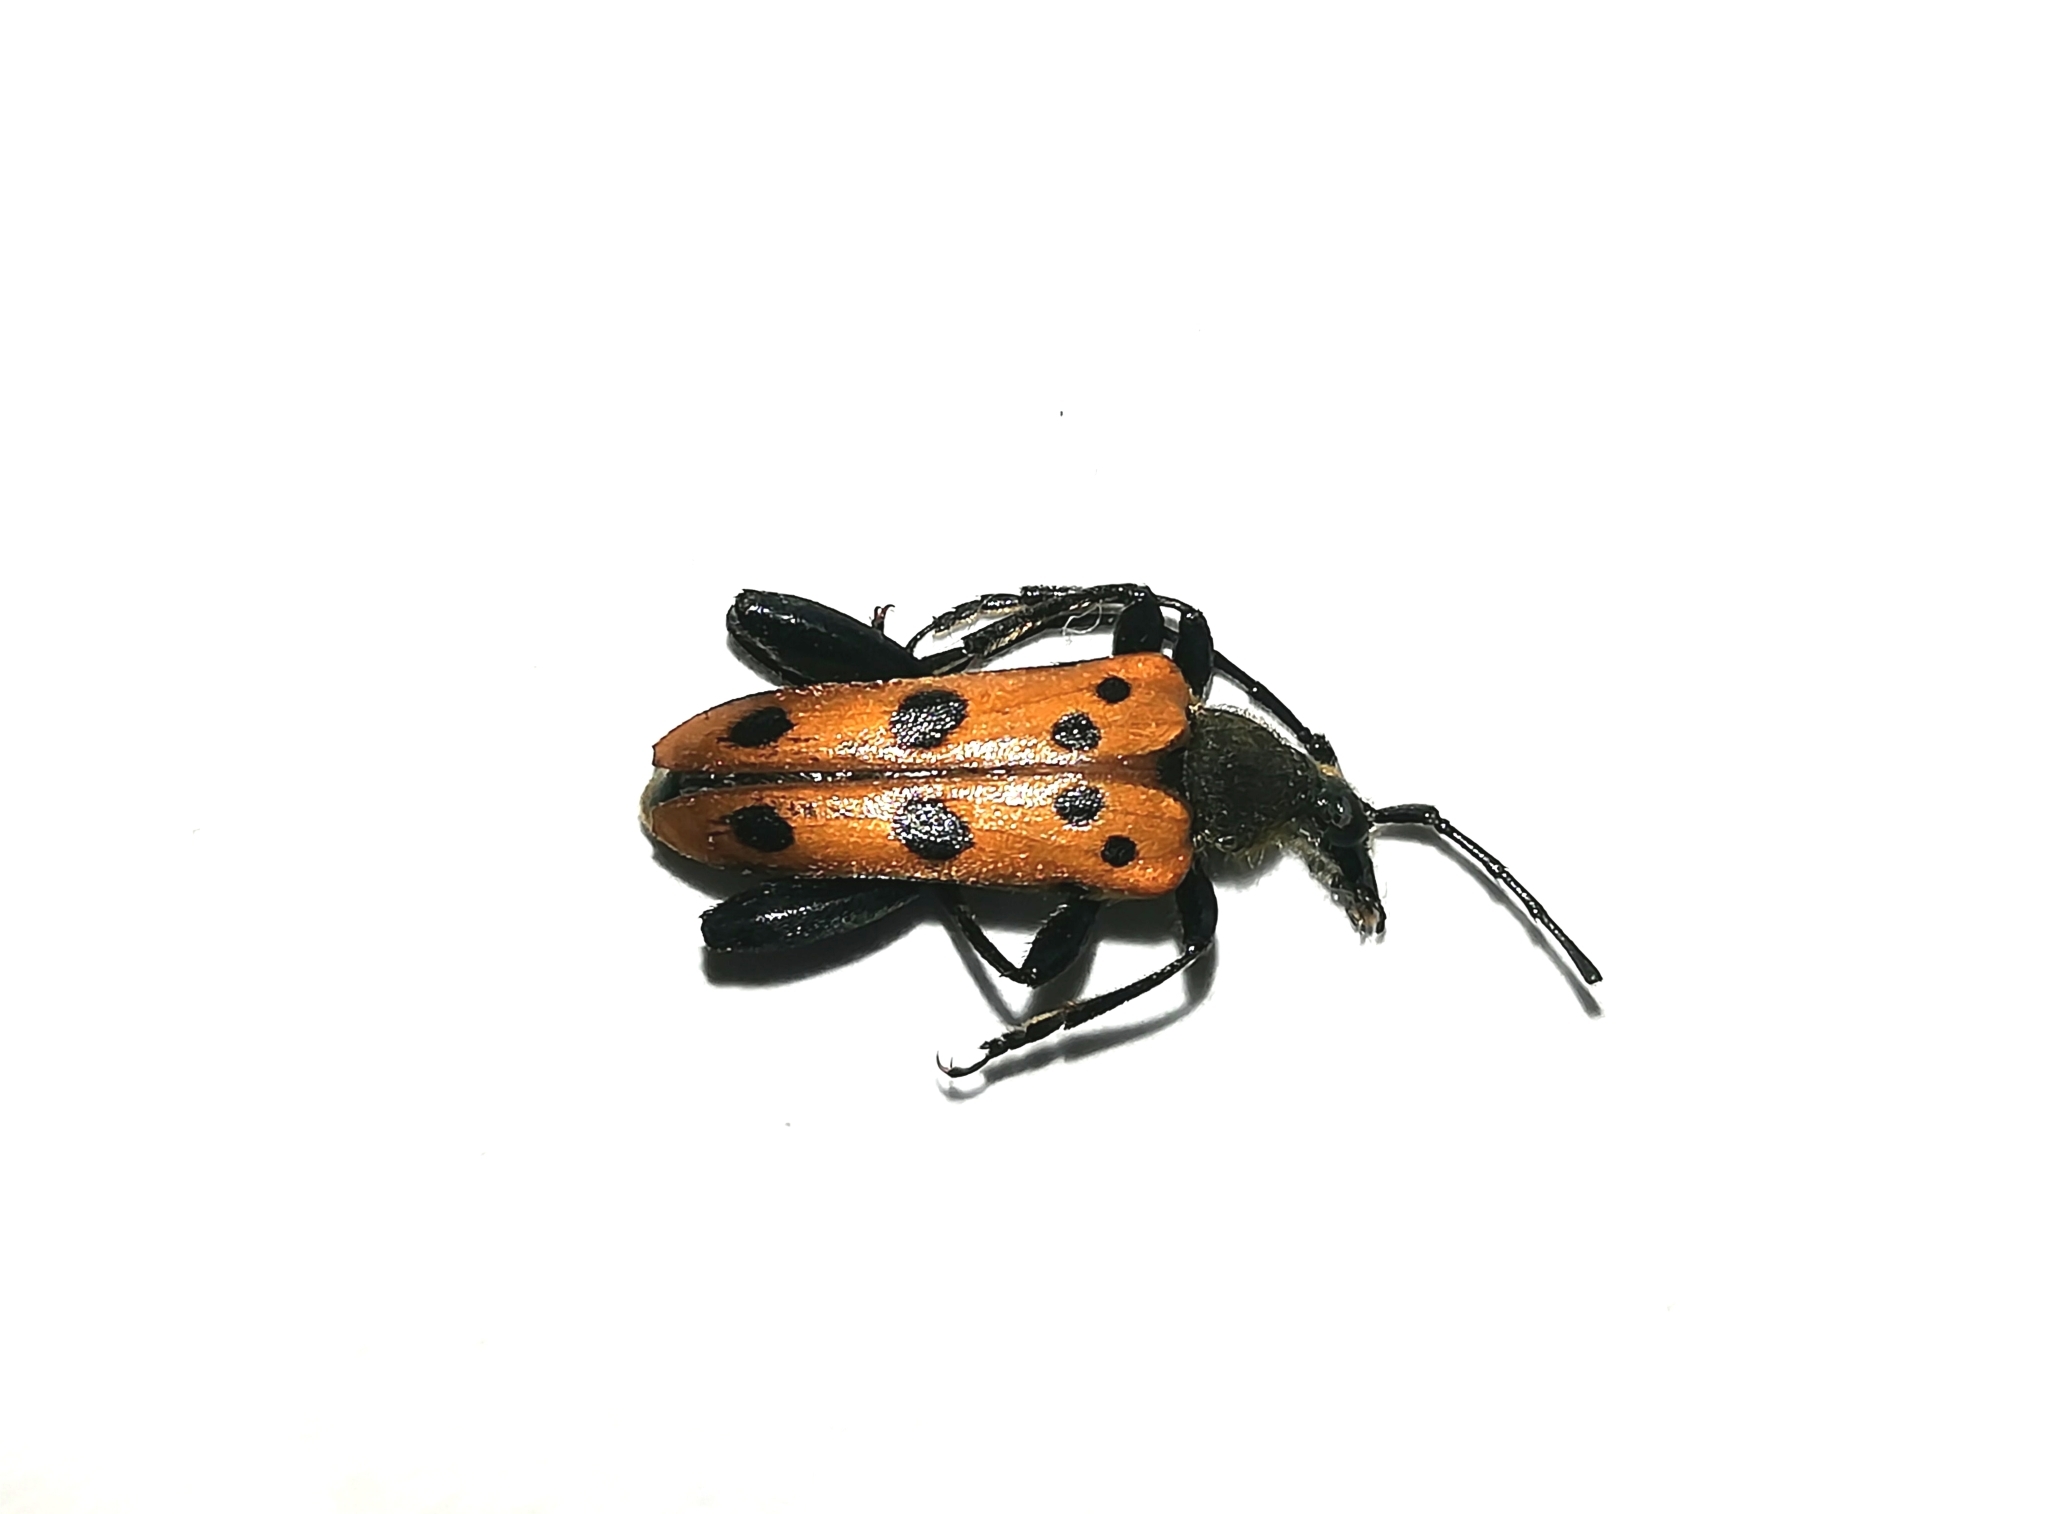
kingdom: Animalia
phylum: Arthropoda
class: Insecta
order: Coleoptera
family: Cerambycidae
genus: Oedecnema
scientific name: Oedecnema gebleri
